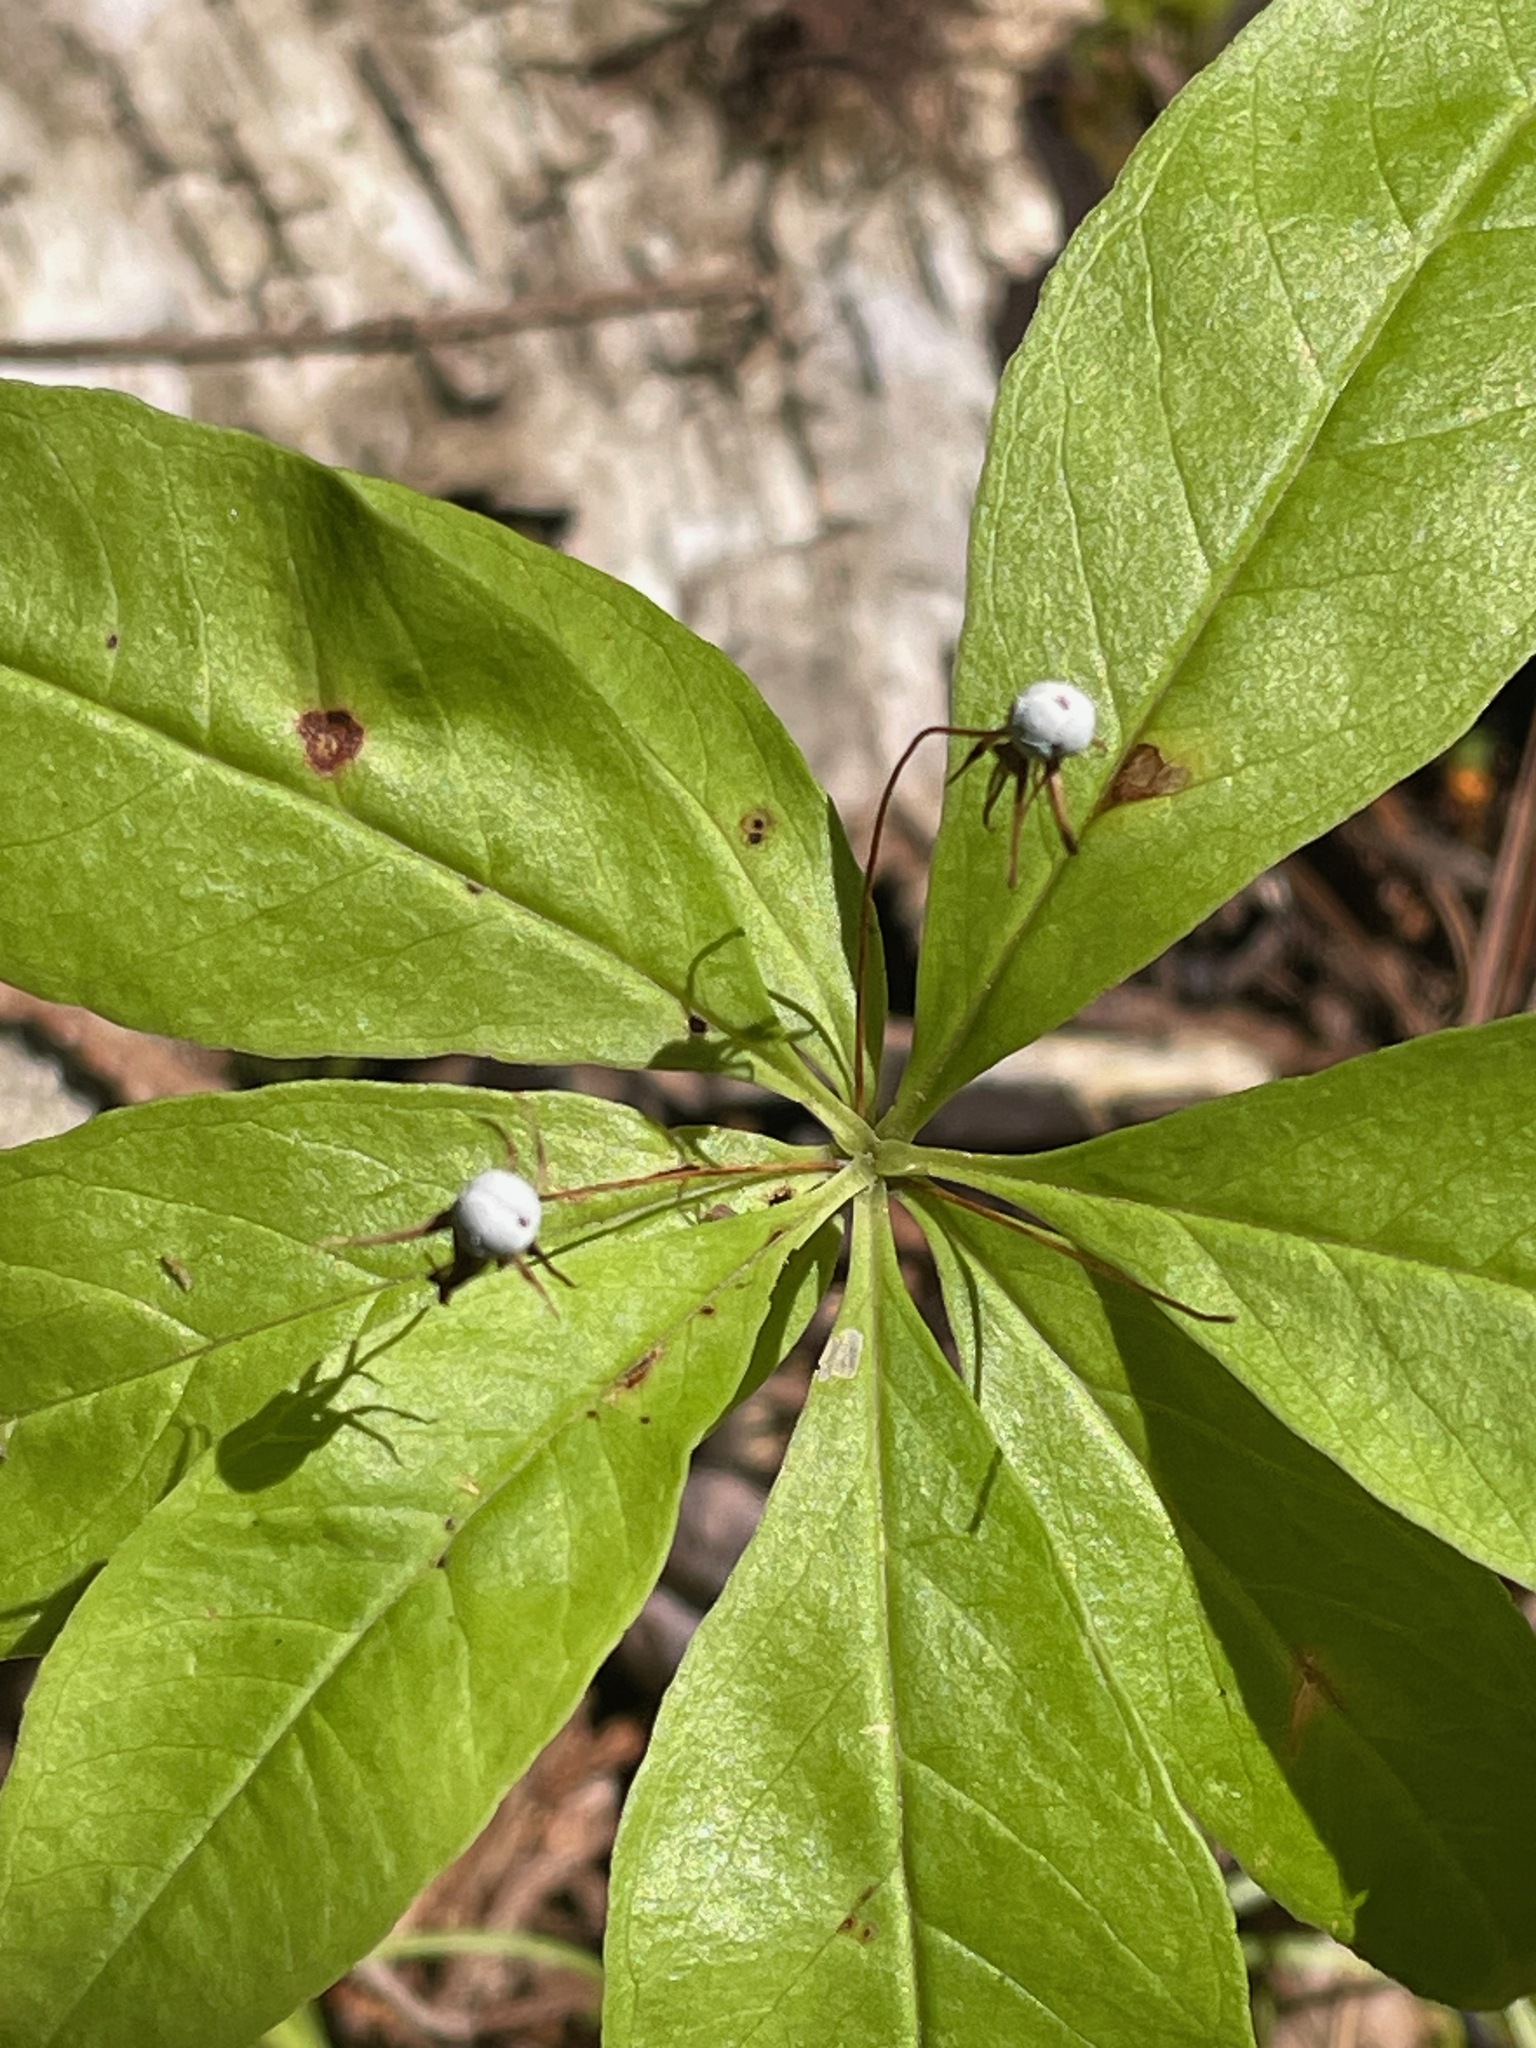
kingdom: Plantae
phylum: Tracheophyta
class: Magnoliopsida
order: Ericales
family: Primulaceae
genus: Lysimachia
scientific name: Lysimachia borealis
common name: American starflower
